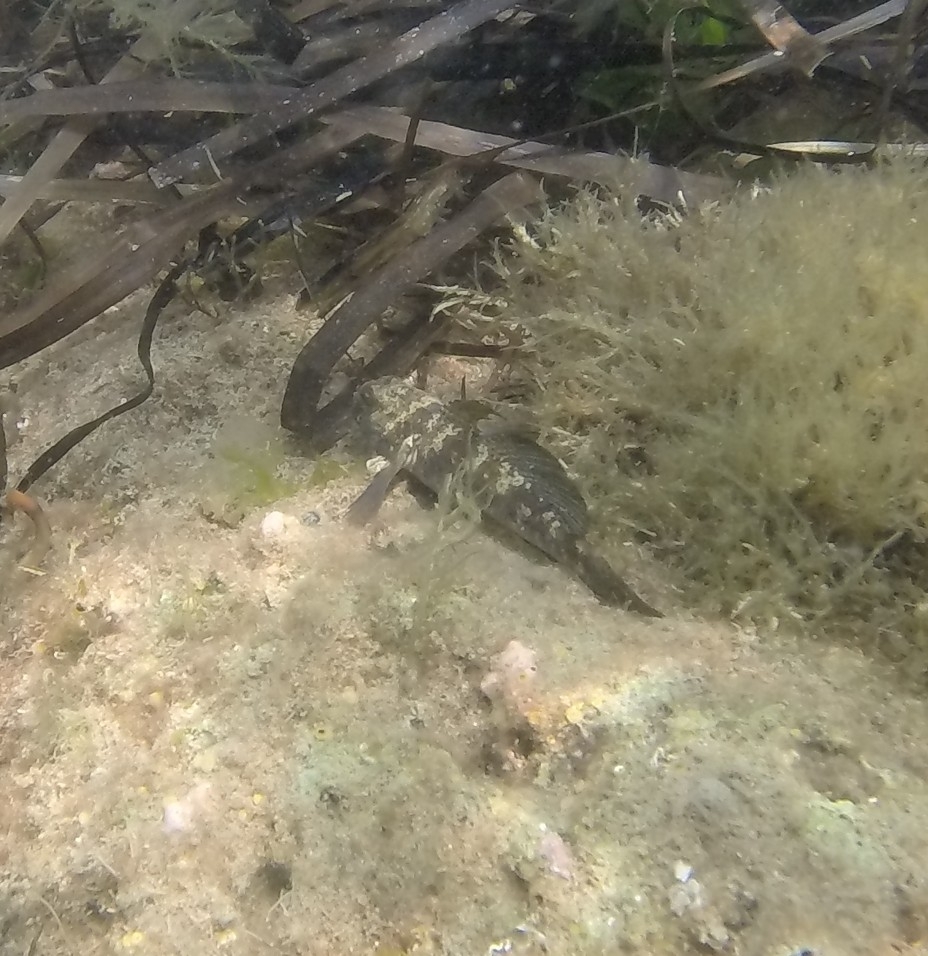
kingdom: Animalia
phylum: Chordata
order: Perciformes
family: Gobiidae
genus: Gobius
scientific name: Gobius niger
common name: Black goby
